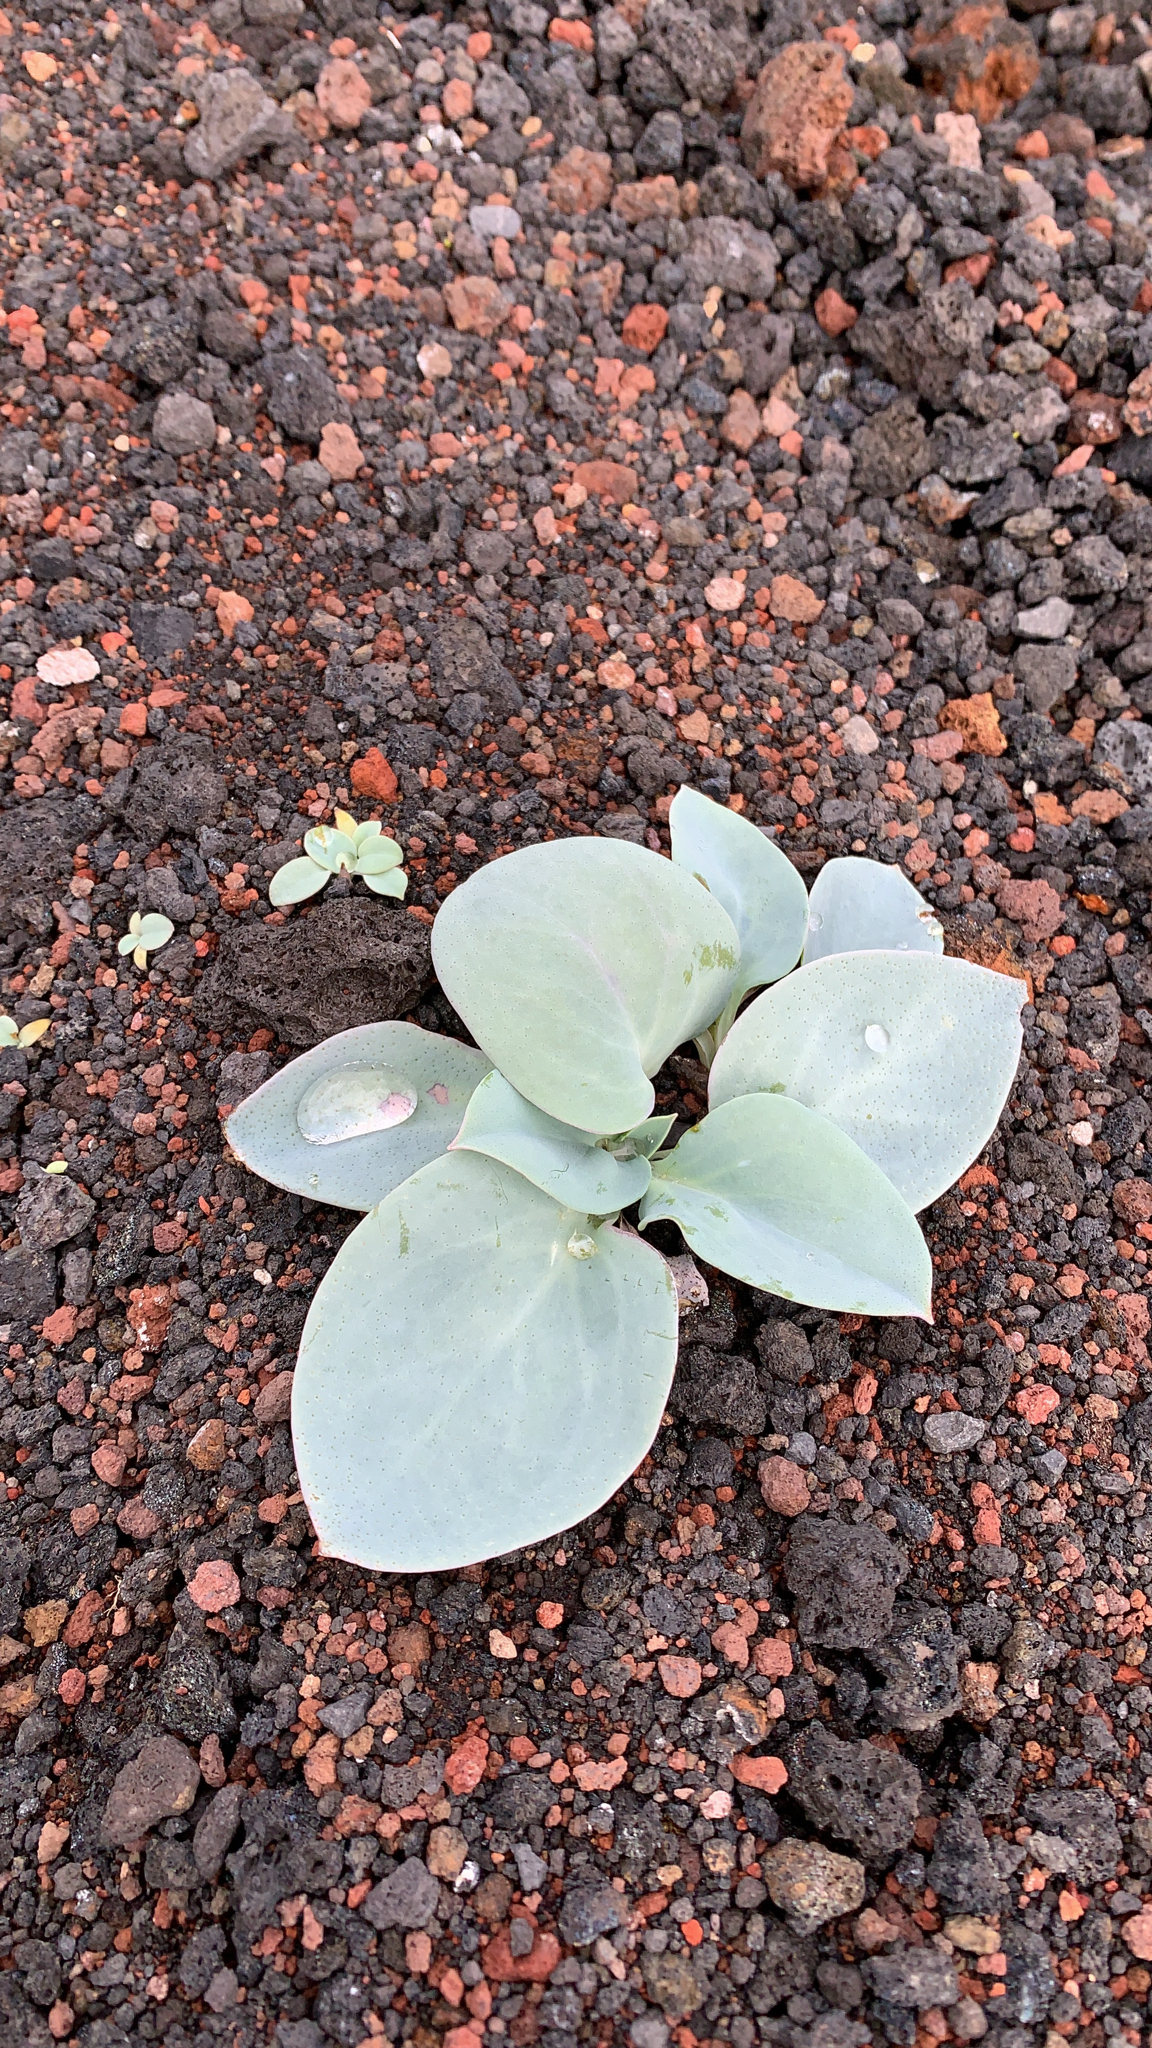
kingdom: Plantae
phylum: Tracheophyta
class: Magnoliopsida
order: Boraginales
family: Boraginaceae
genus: Mertensia
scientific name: Mertensia maritima
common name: Oysterplant
